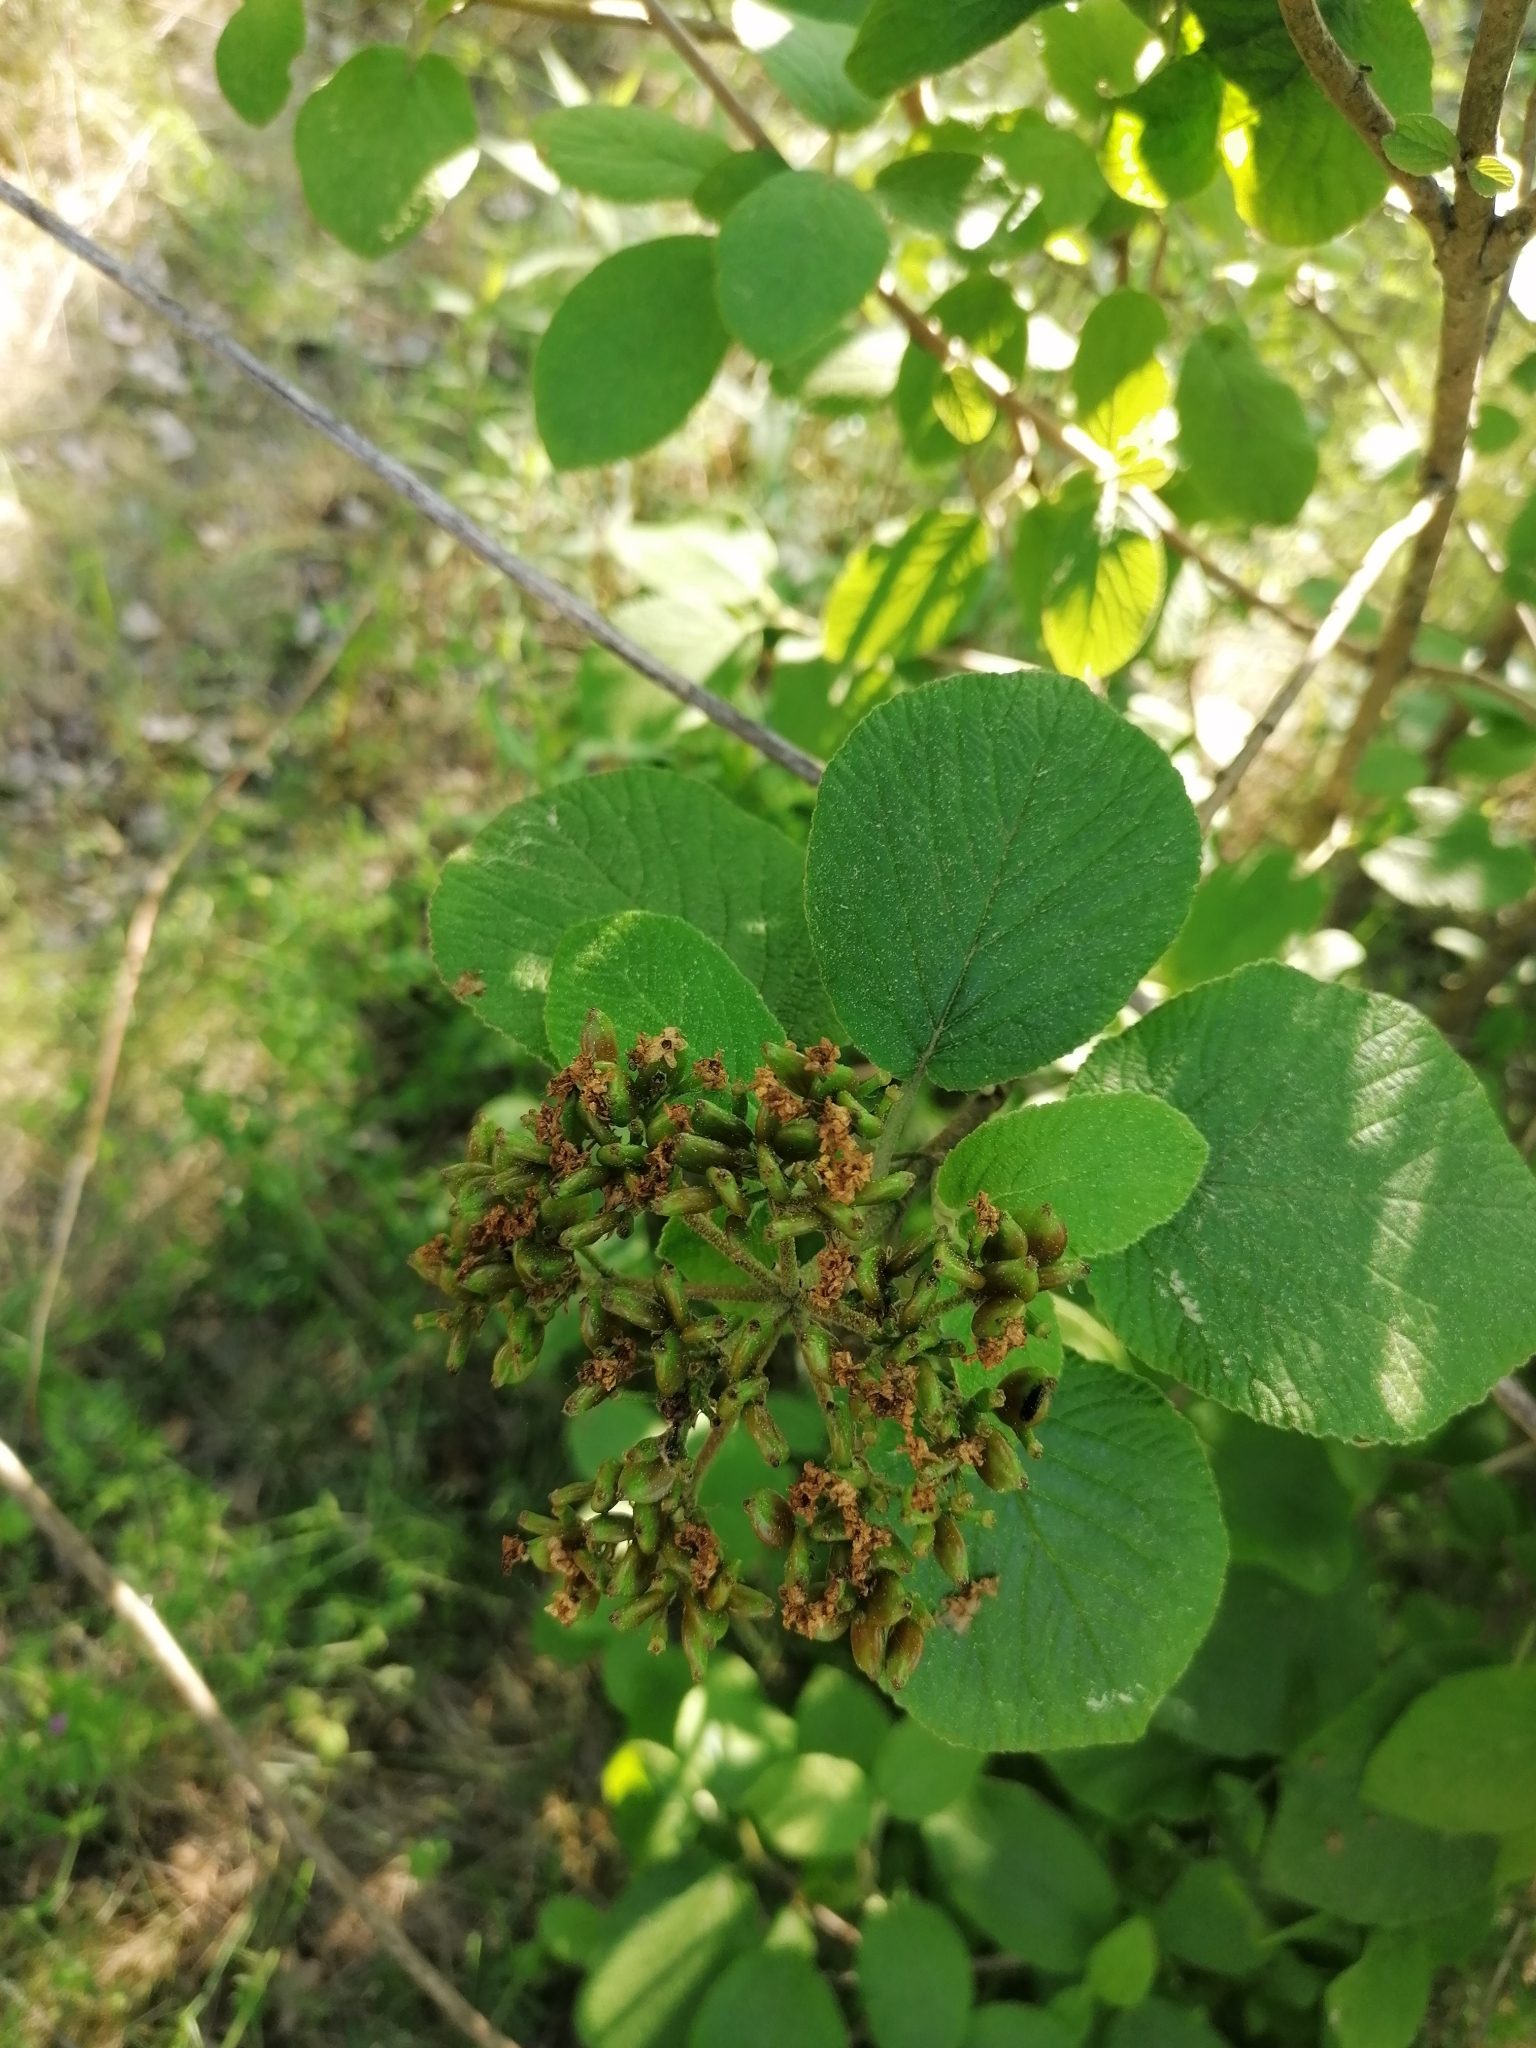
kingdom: Plantae
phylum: Tracheophyta
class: Magnoliopsida
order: Dipsacales
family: Viburnaceae
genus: Viburnum
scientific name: Viburnum lantana
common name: Wayfaring tree
